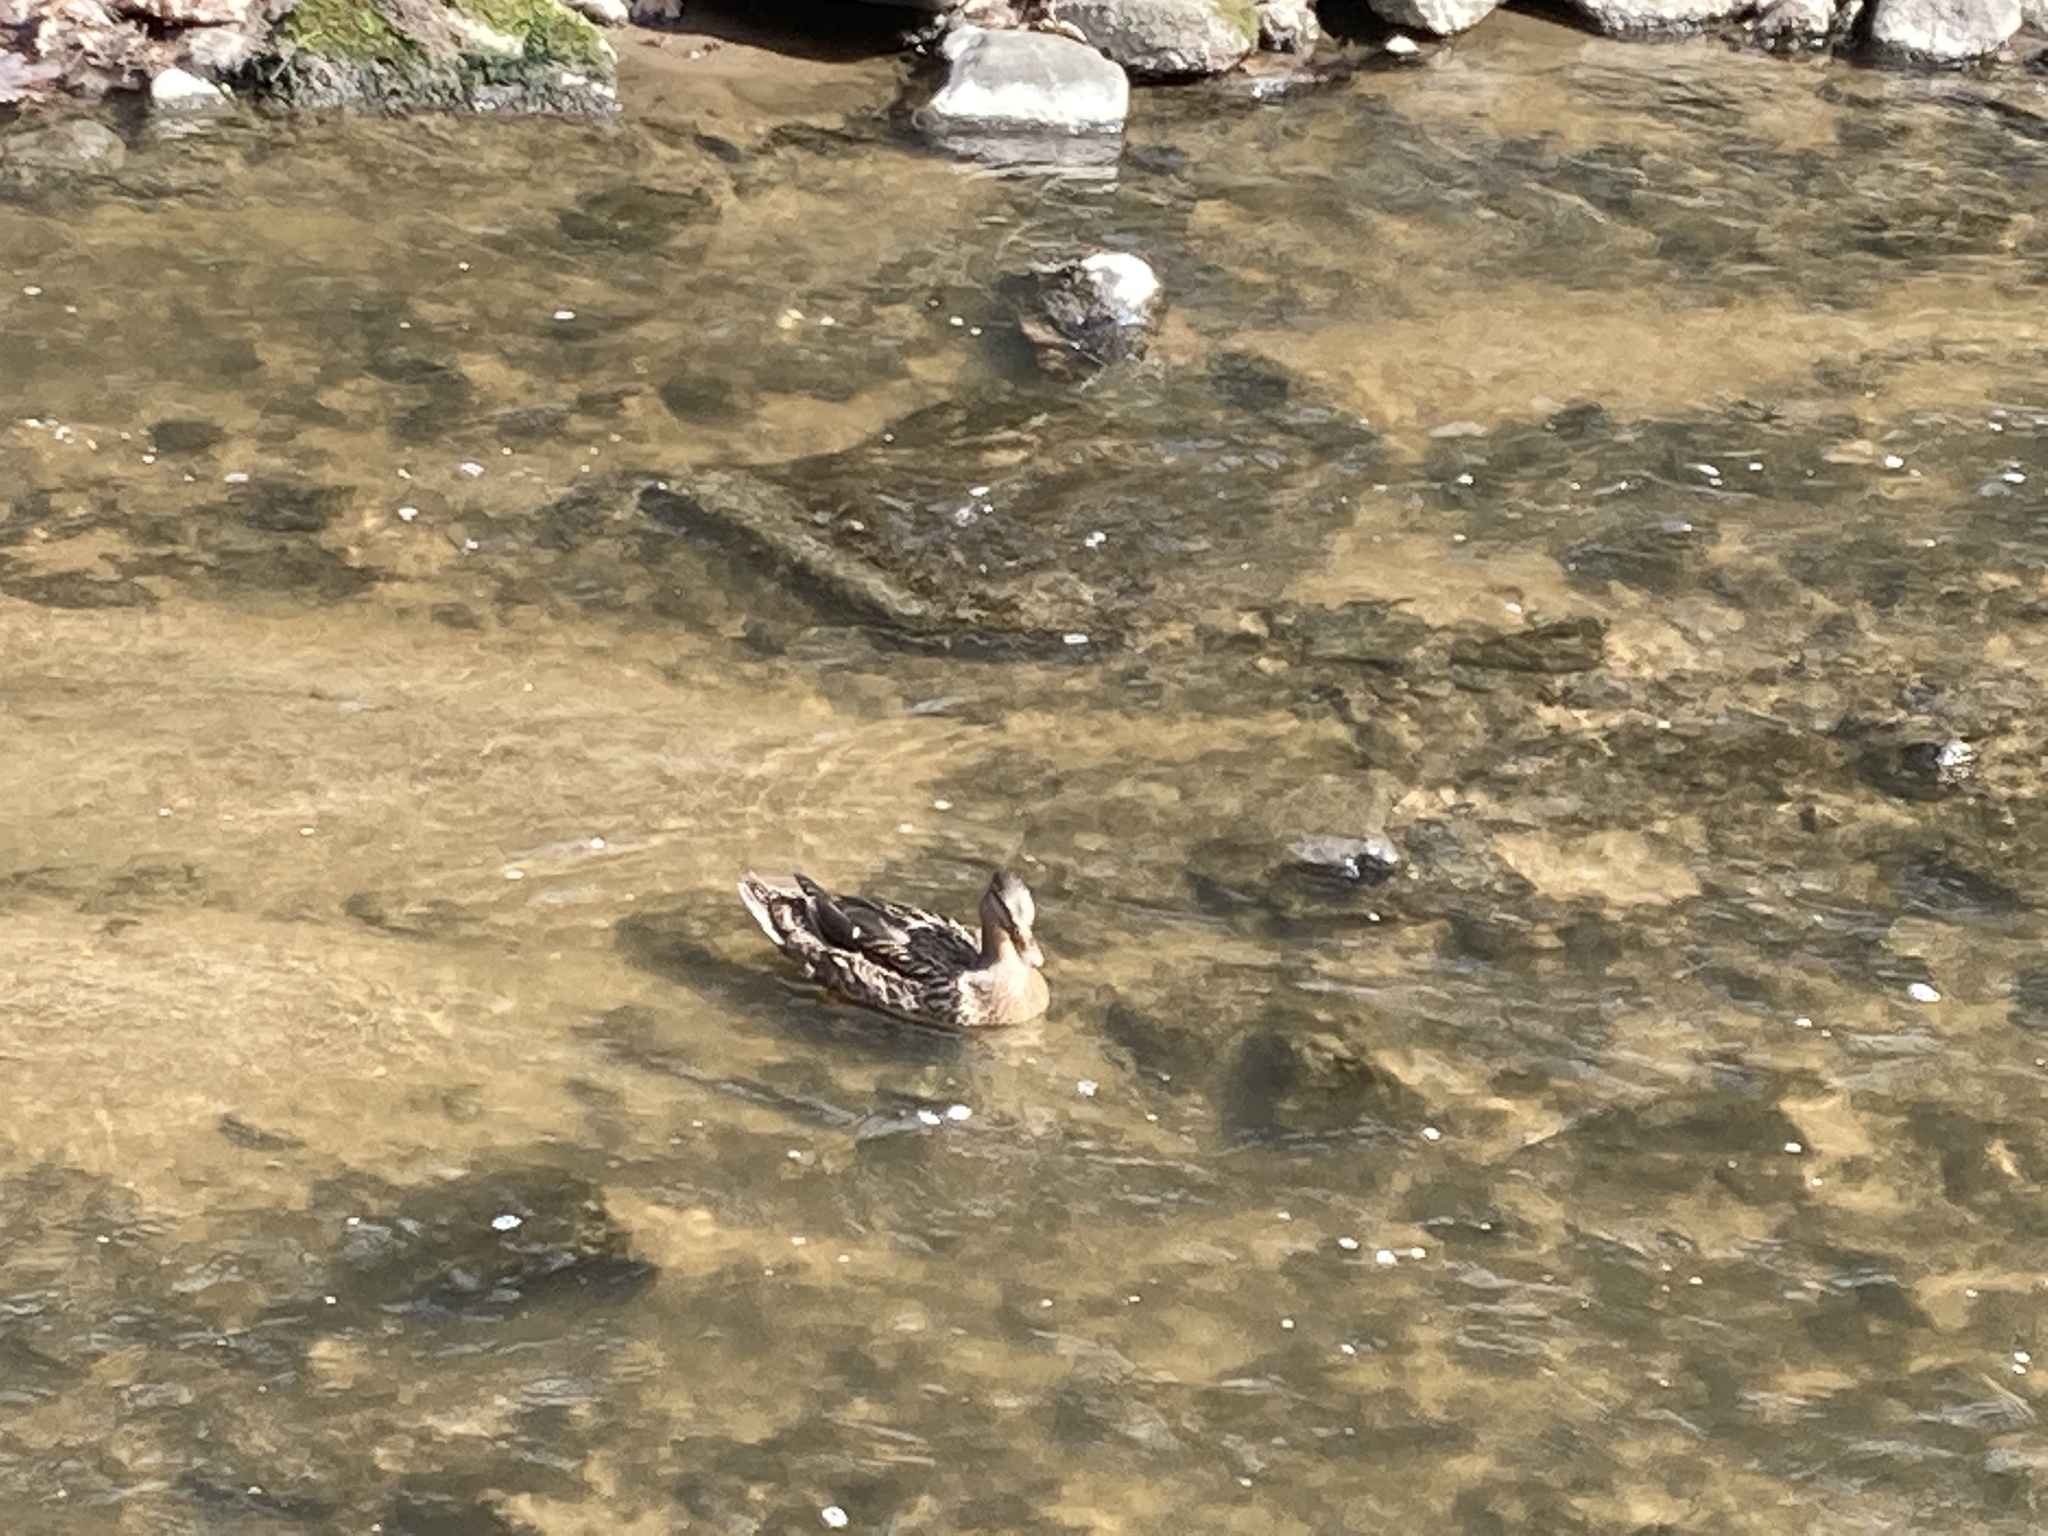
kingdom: Animalia
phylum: Chordata
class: Aves
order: Anseriformes
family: Anatidae
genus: Anas
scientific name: Anas platyrhynchos
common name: Mallard
